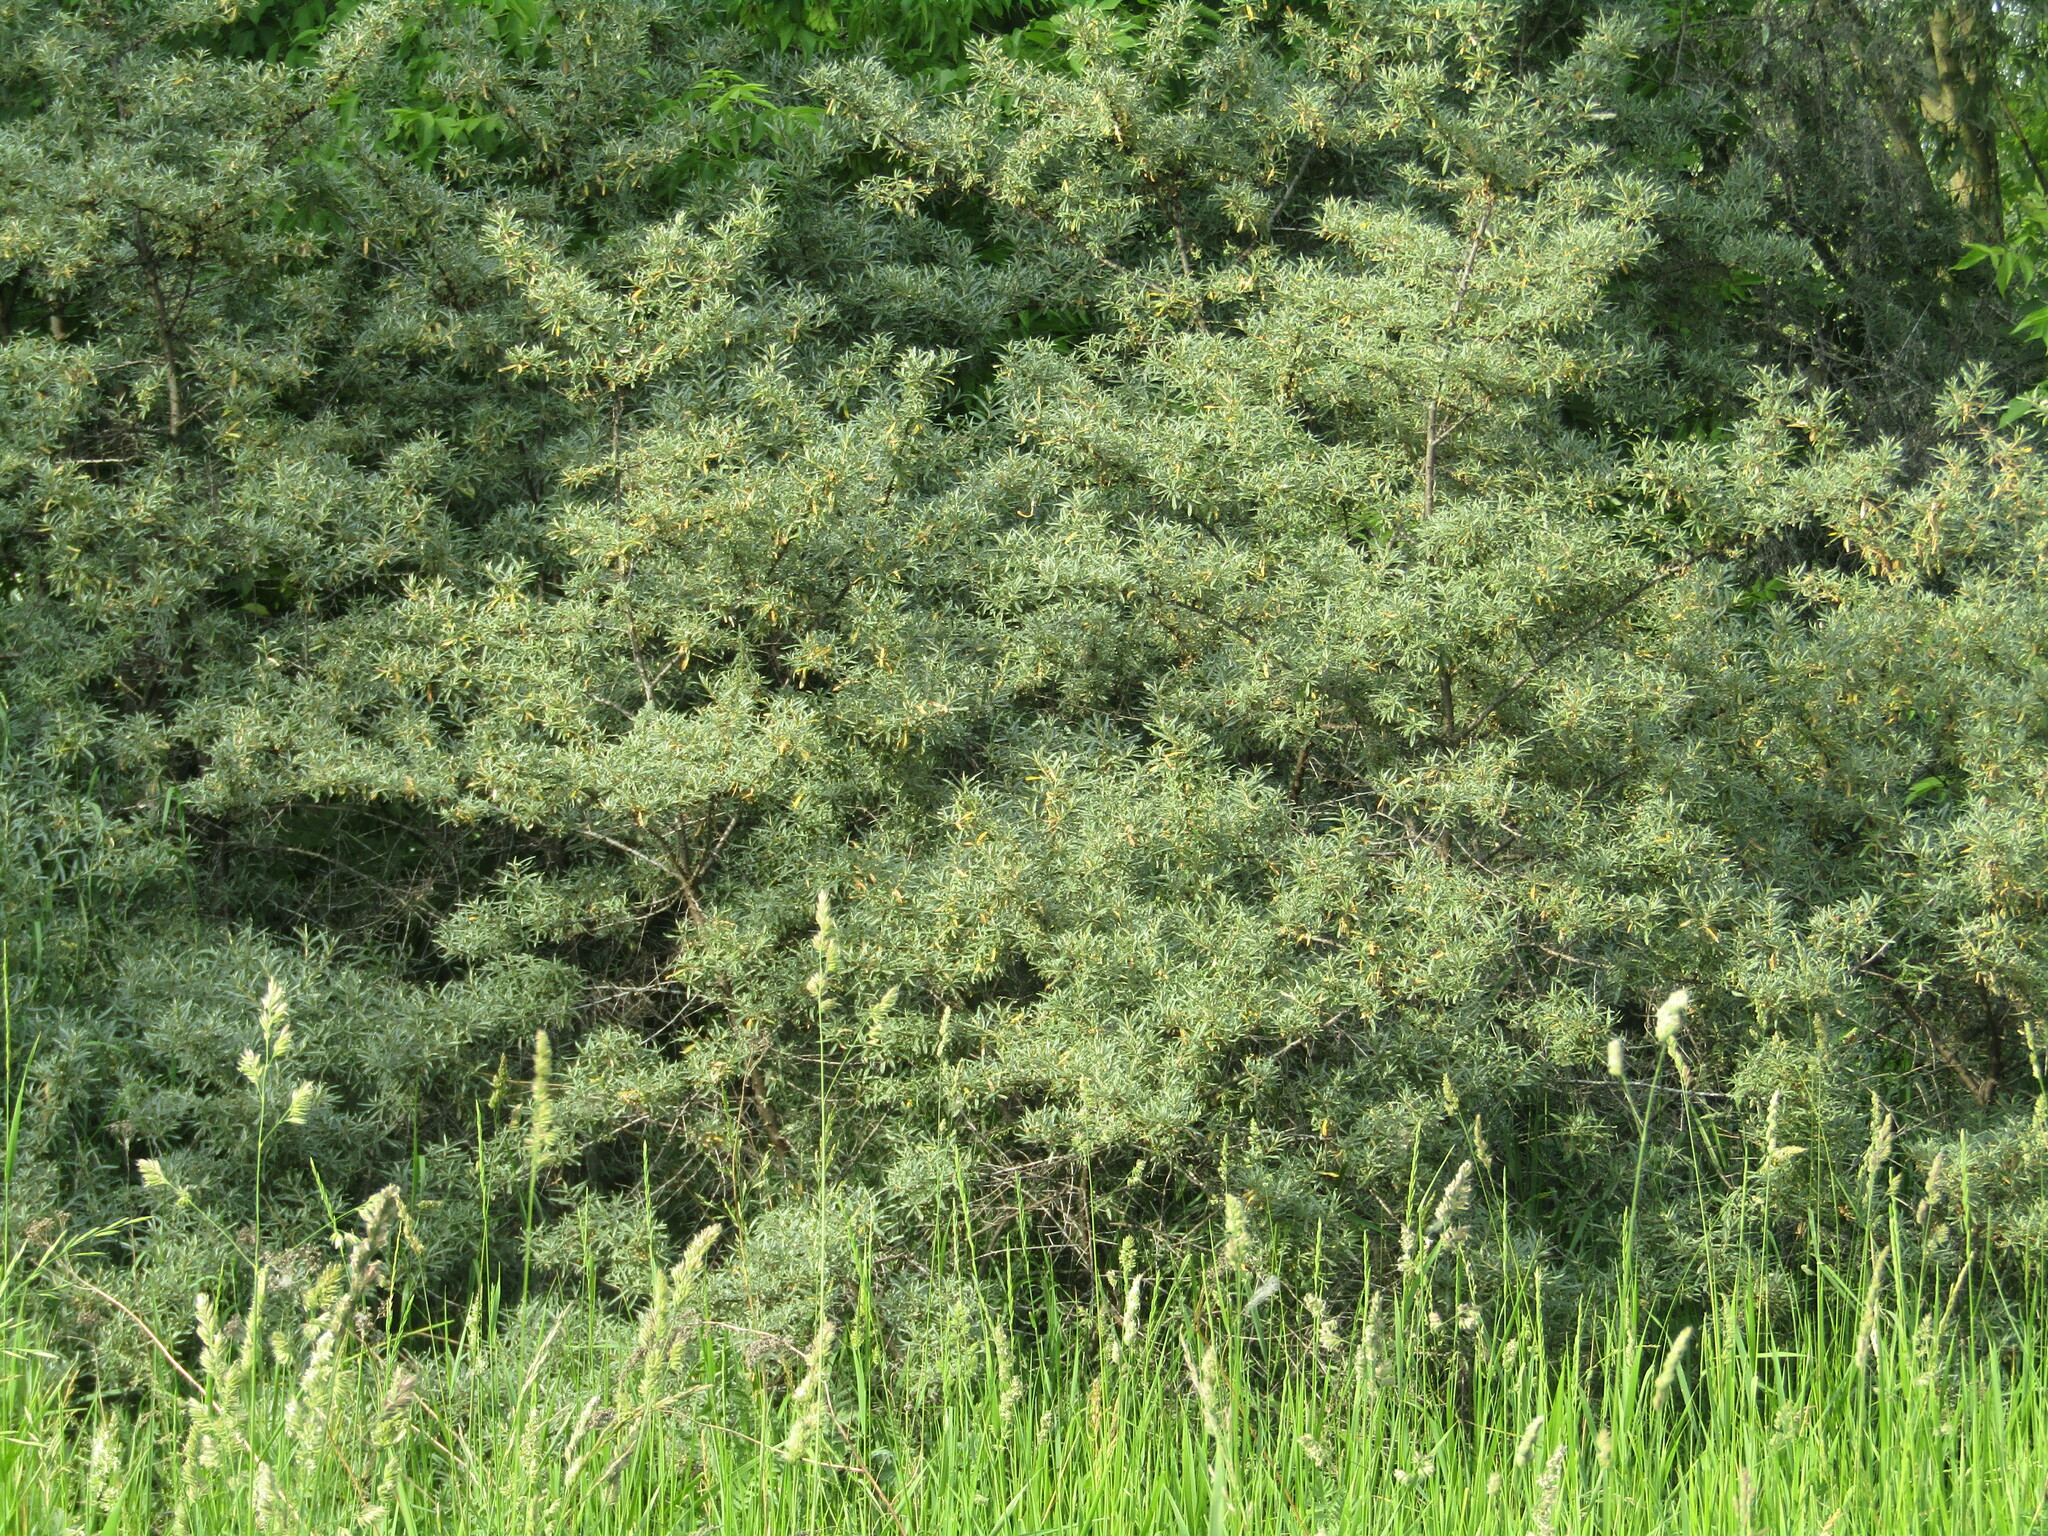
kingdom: Plantae
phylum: Tracheophyta
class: Magnoliopsida
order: Rosales
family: Elaeagnaceae
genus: Hippophae
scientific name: Hippophae rhamnoides
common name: Sea-buckthorn
